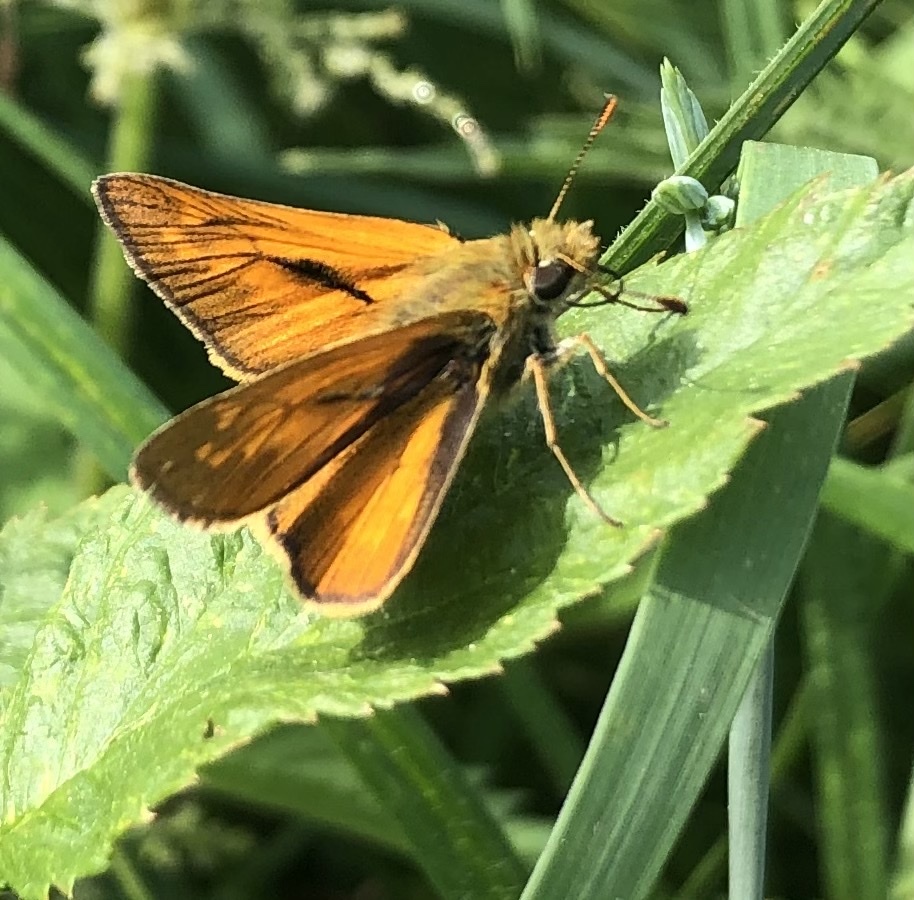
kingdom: Animalia
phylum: Arthropoda
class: Insecta
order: Lepidoptera
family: Hesperiidae
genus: Ochlodes
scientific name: Ochlodes venata
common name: Large skipper
